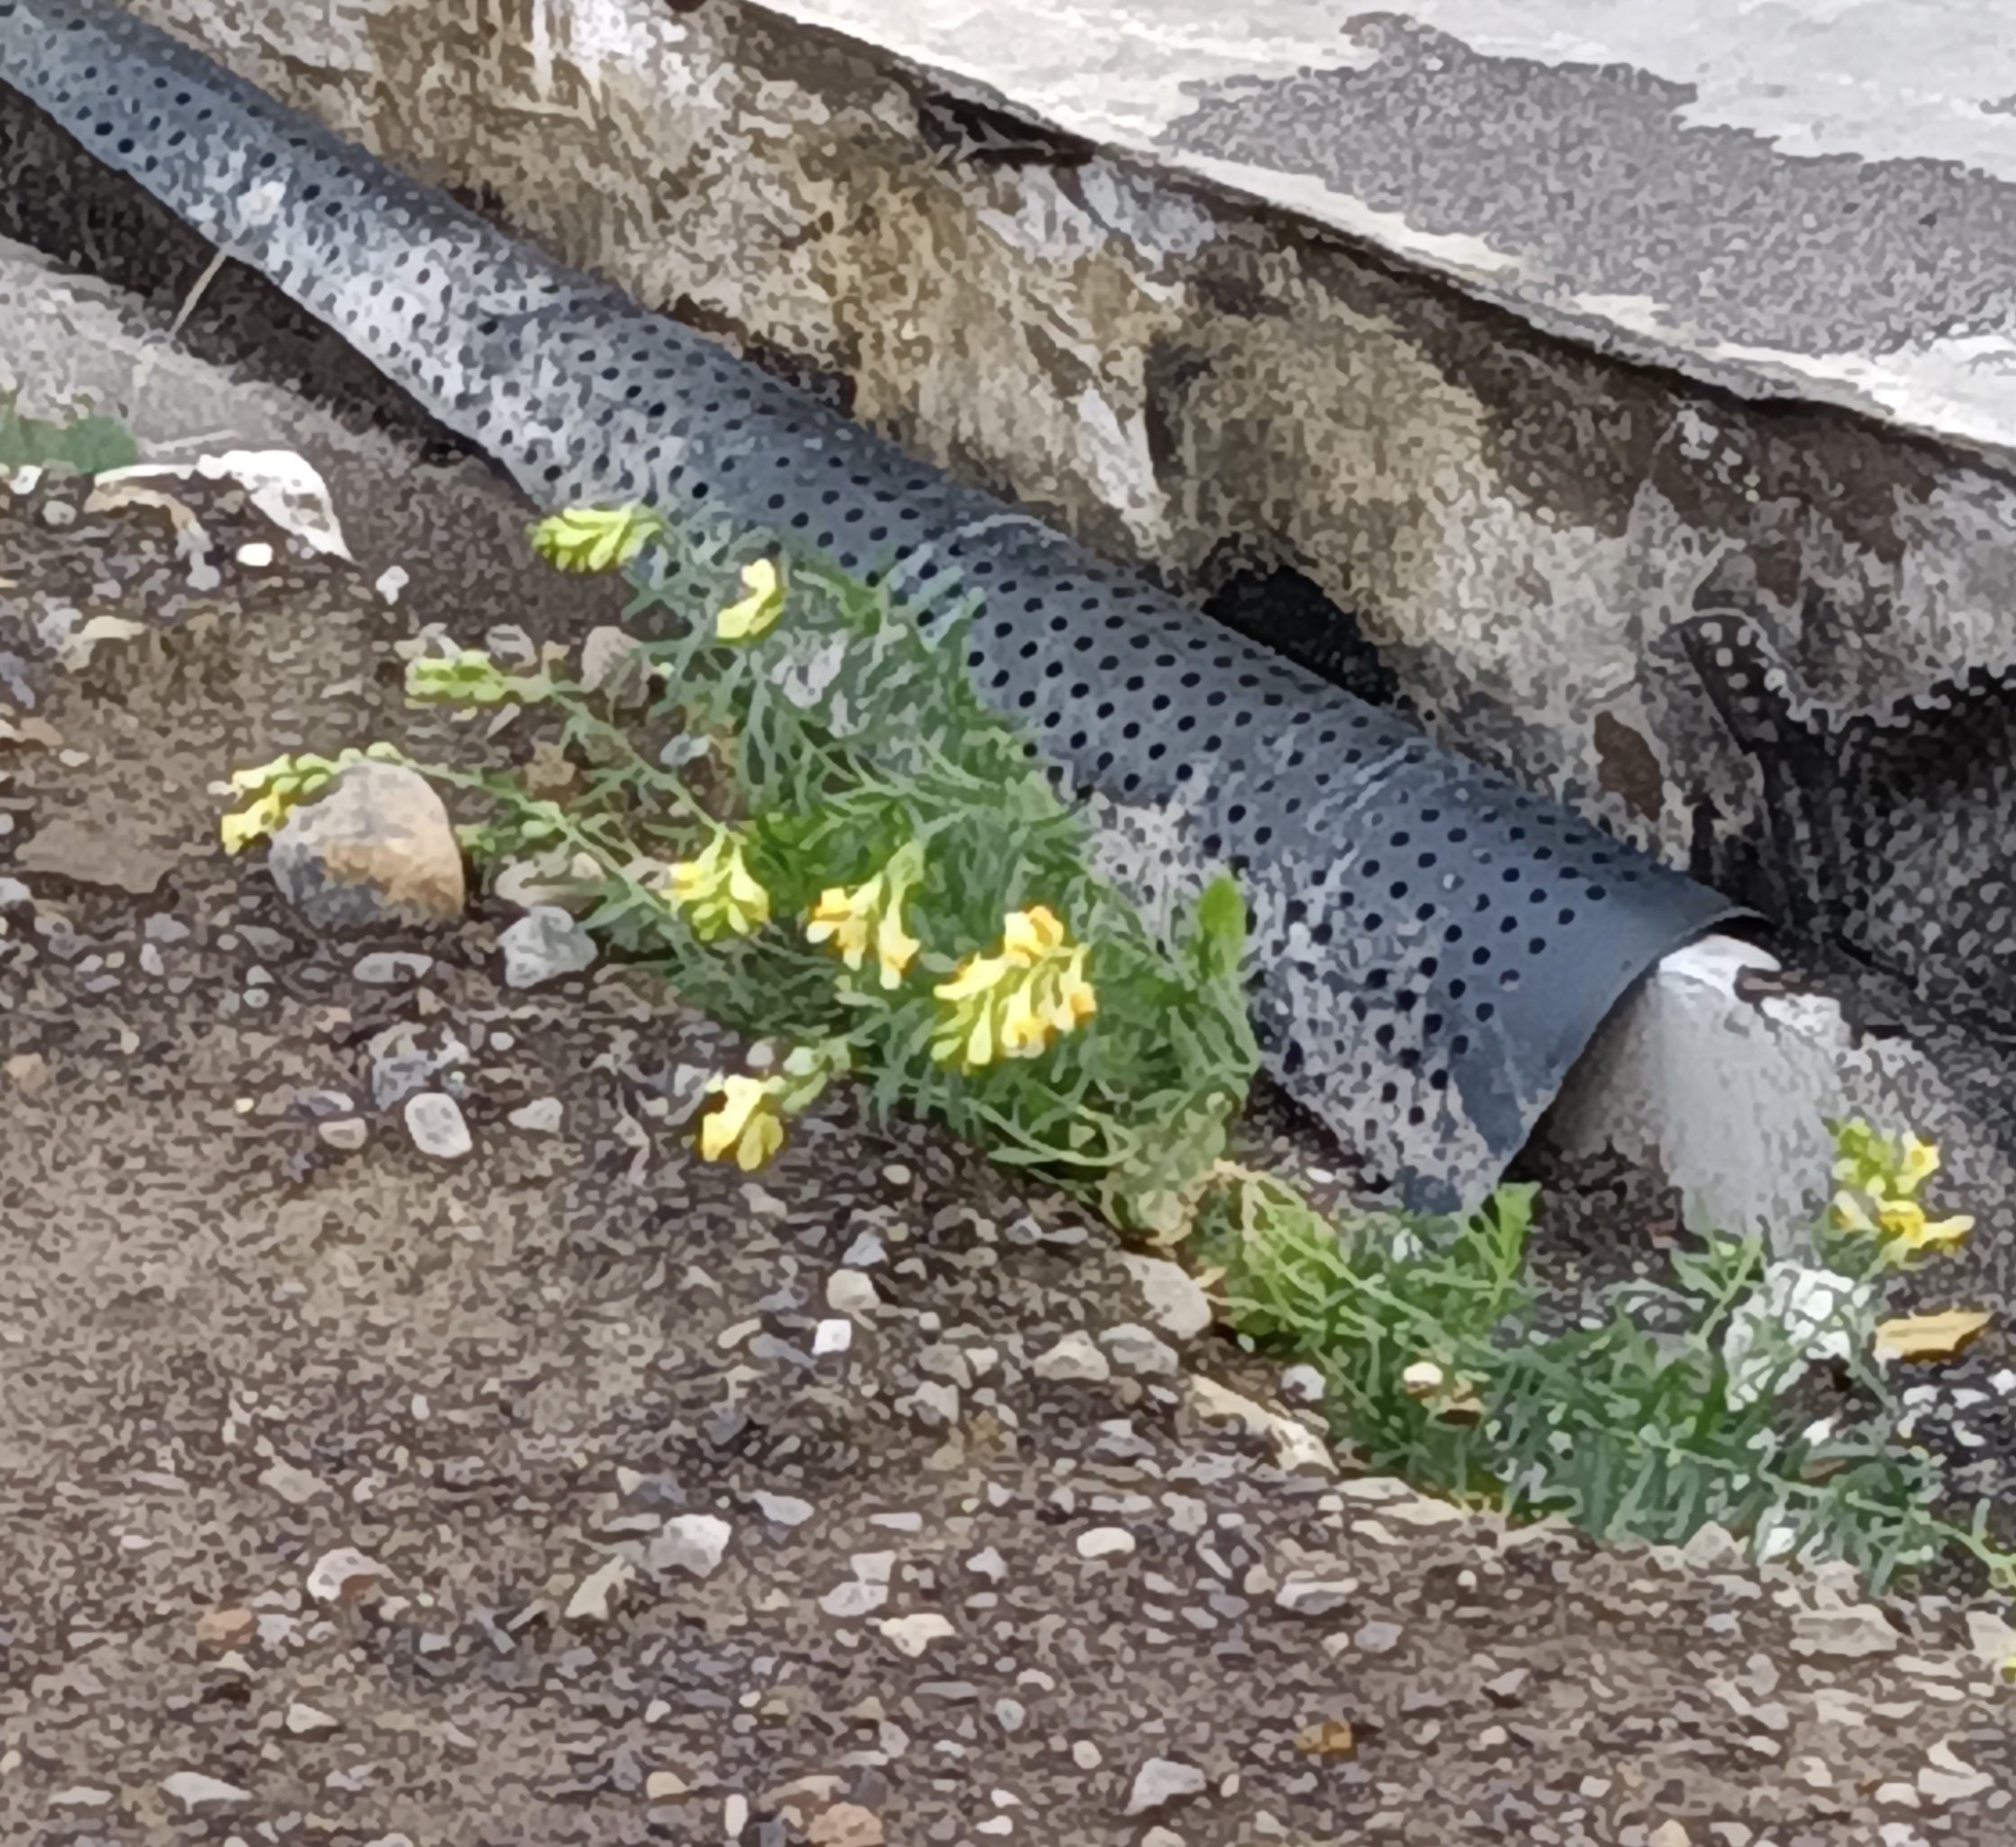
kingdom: Plantae
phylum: Tracheophyta
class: Magnoliopsida
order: Lamiales
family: Plantaginaceae
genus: Linaria
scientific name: Linaria vulgaris
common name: Butter and eggs
